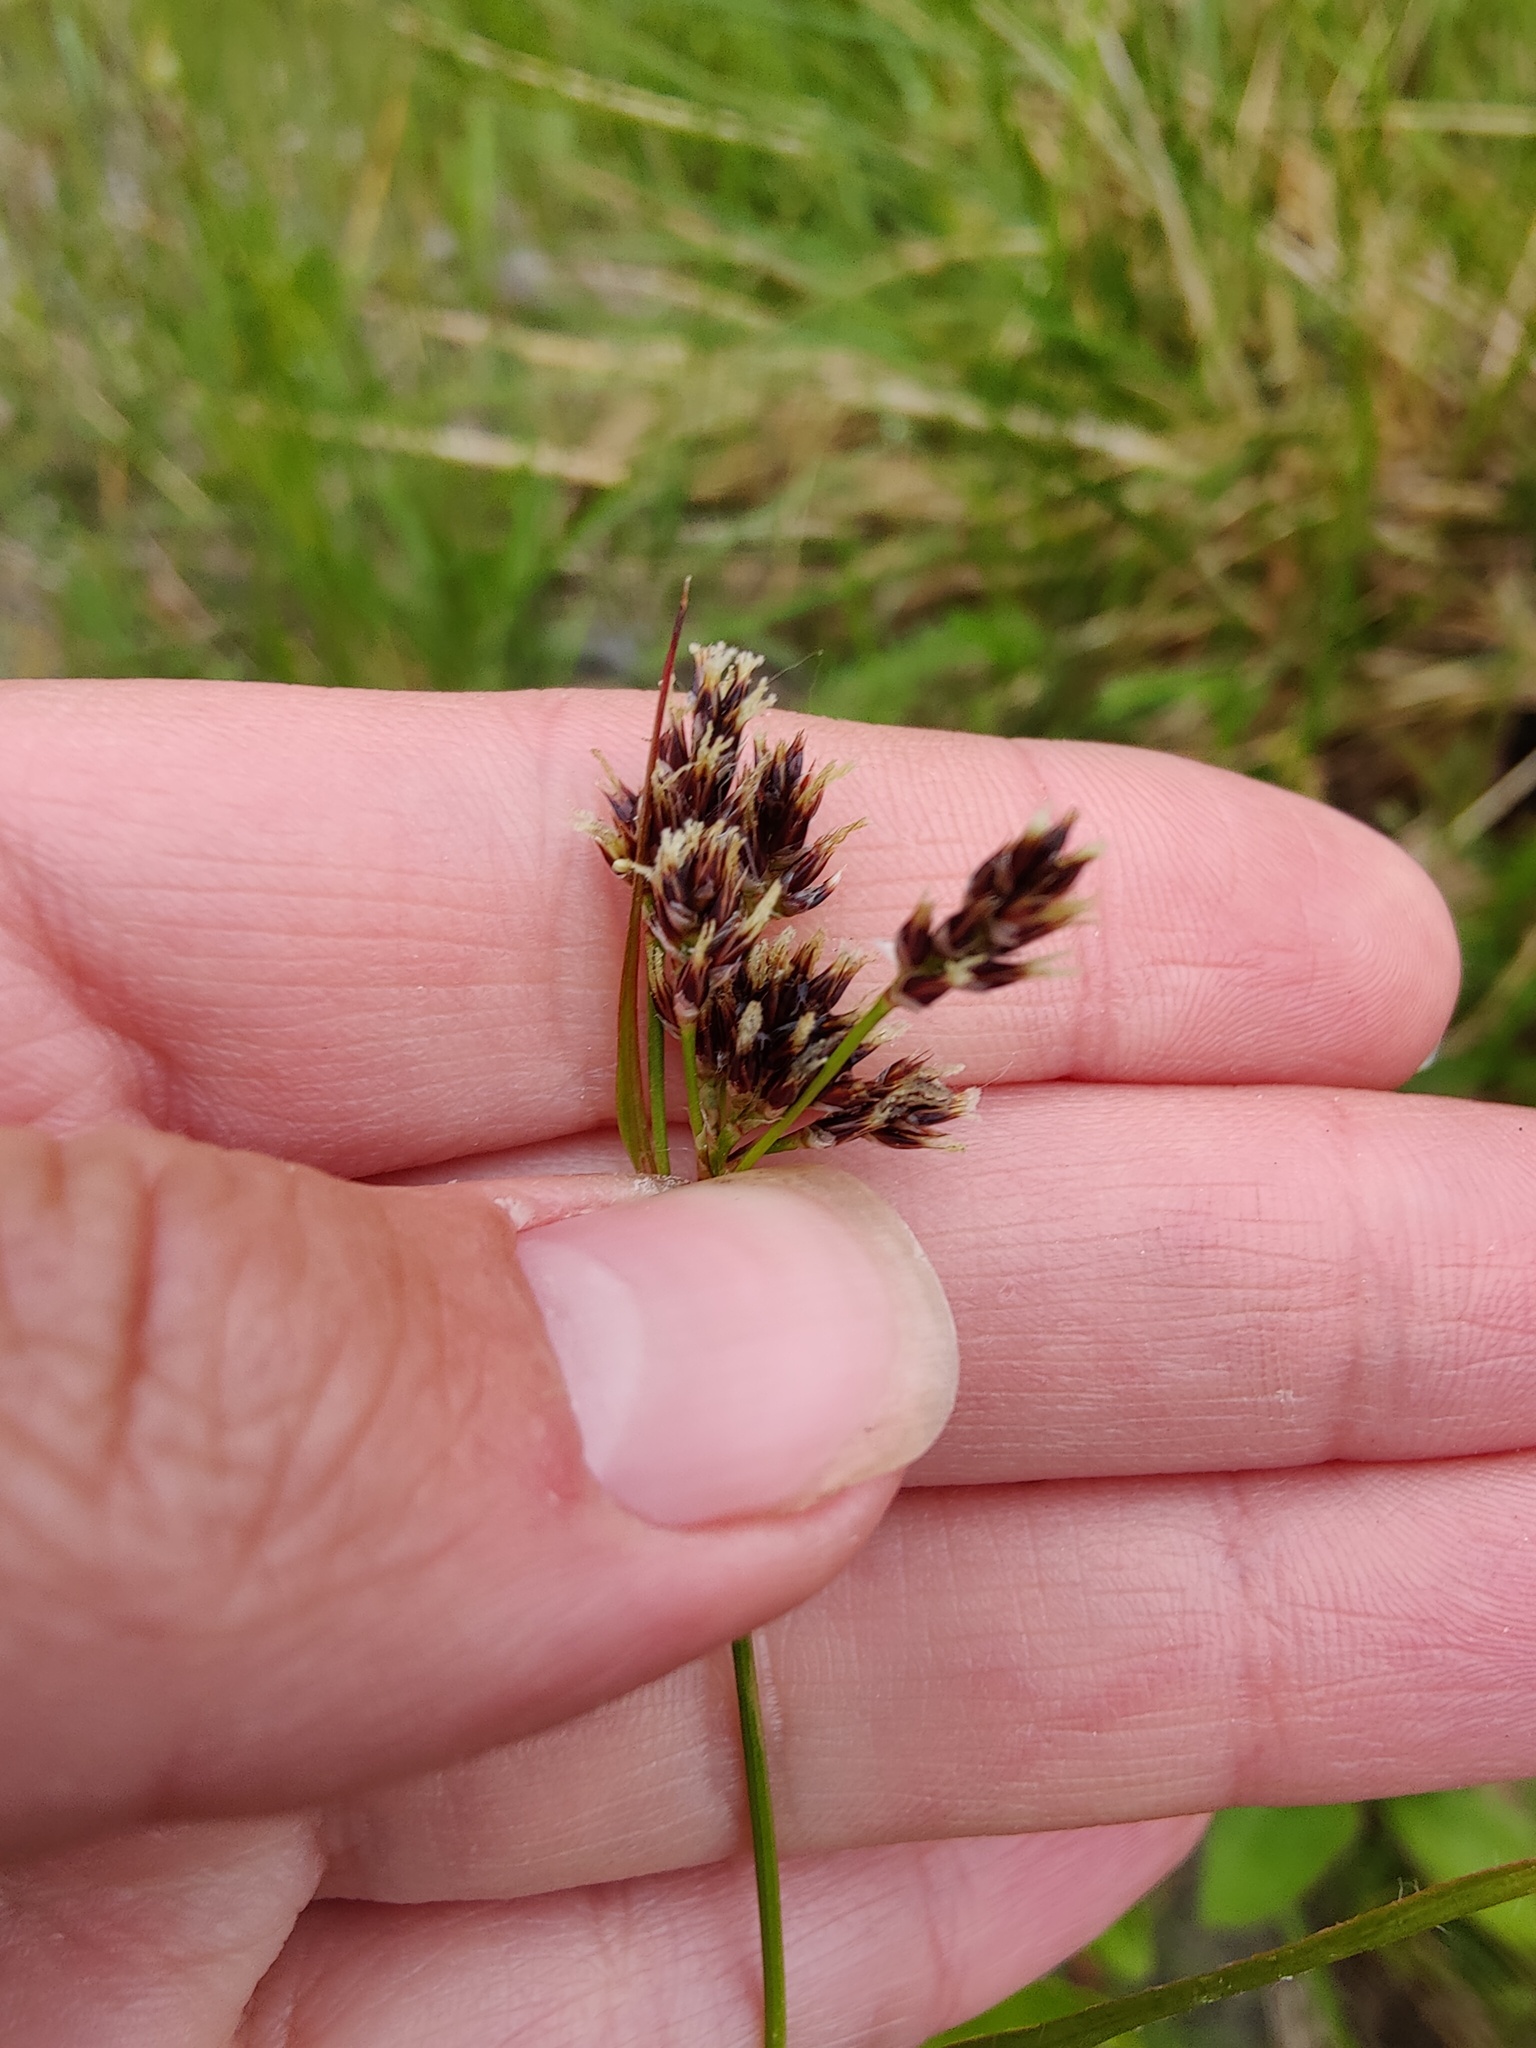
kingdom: Plantae
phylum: Tracheophyta
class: Liliopsida
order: Poales
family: Juncaceae
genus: Luzula
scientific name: Luzula multiflora
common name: Heath wood-rush
